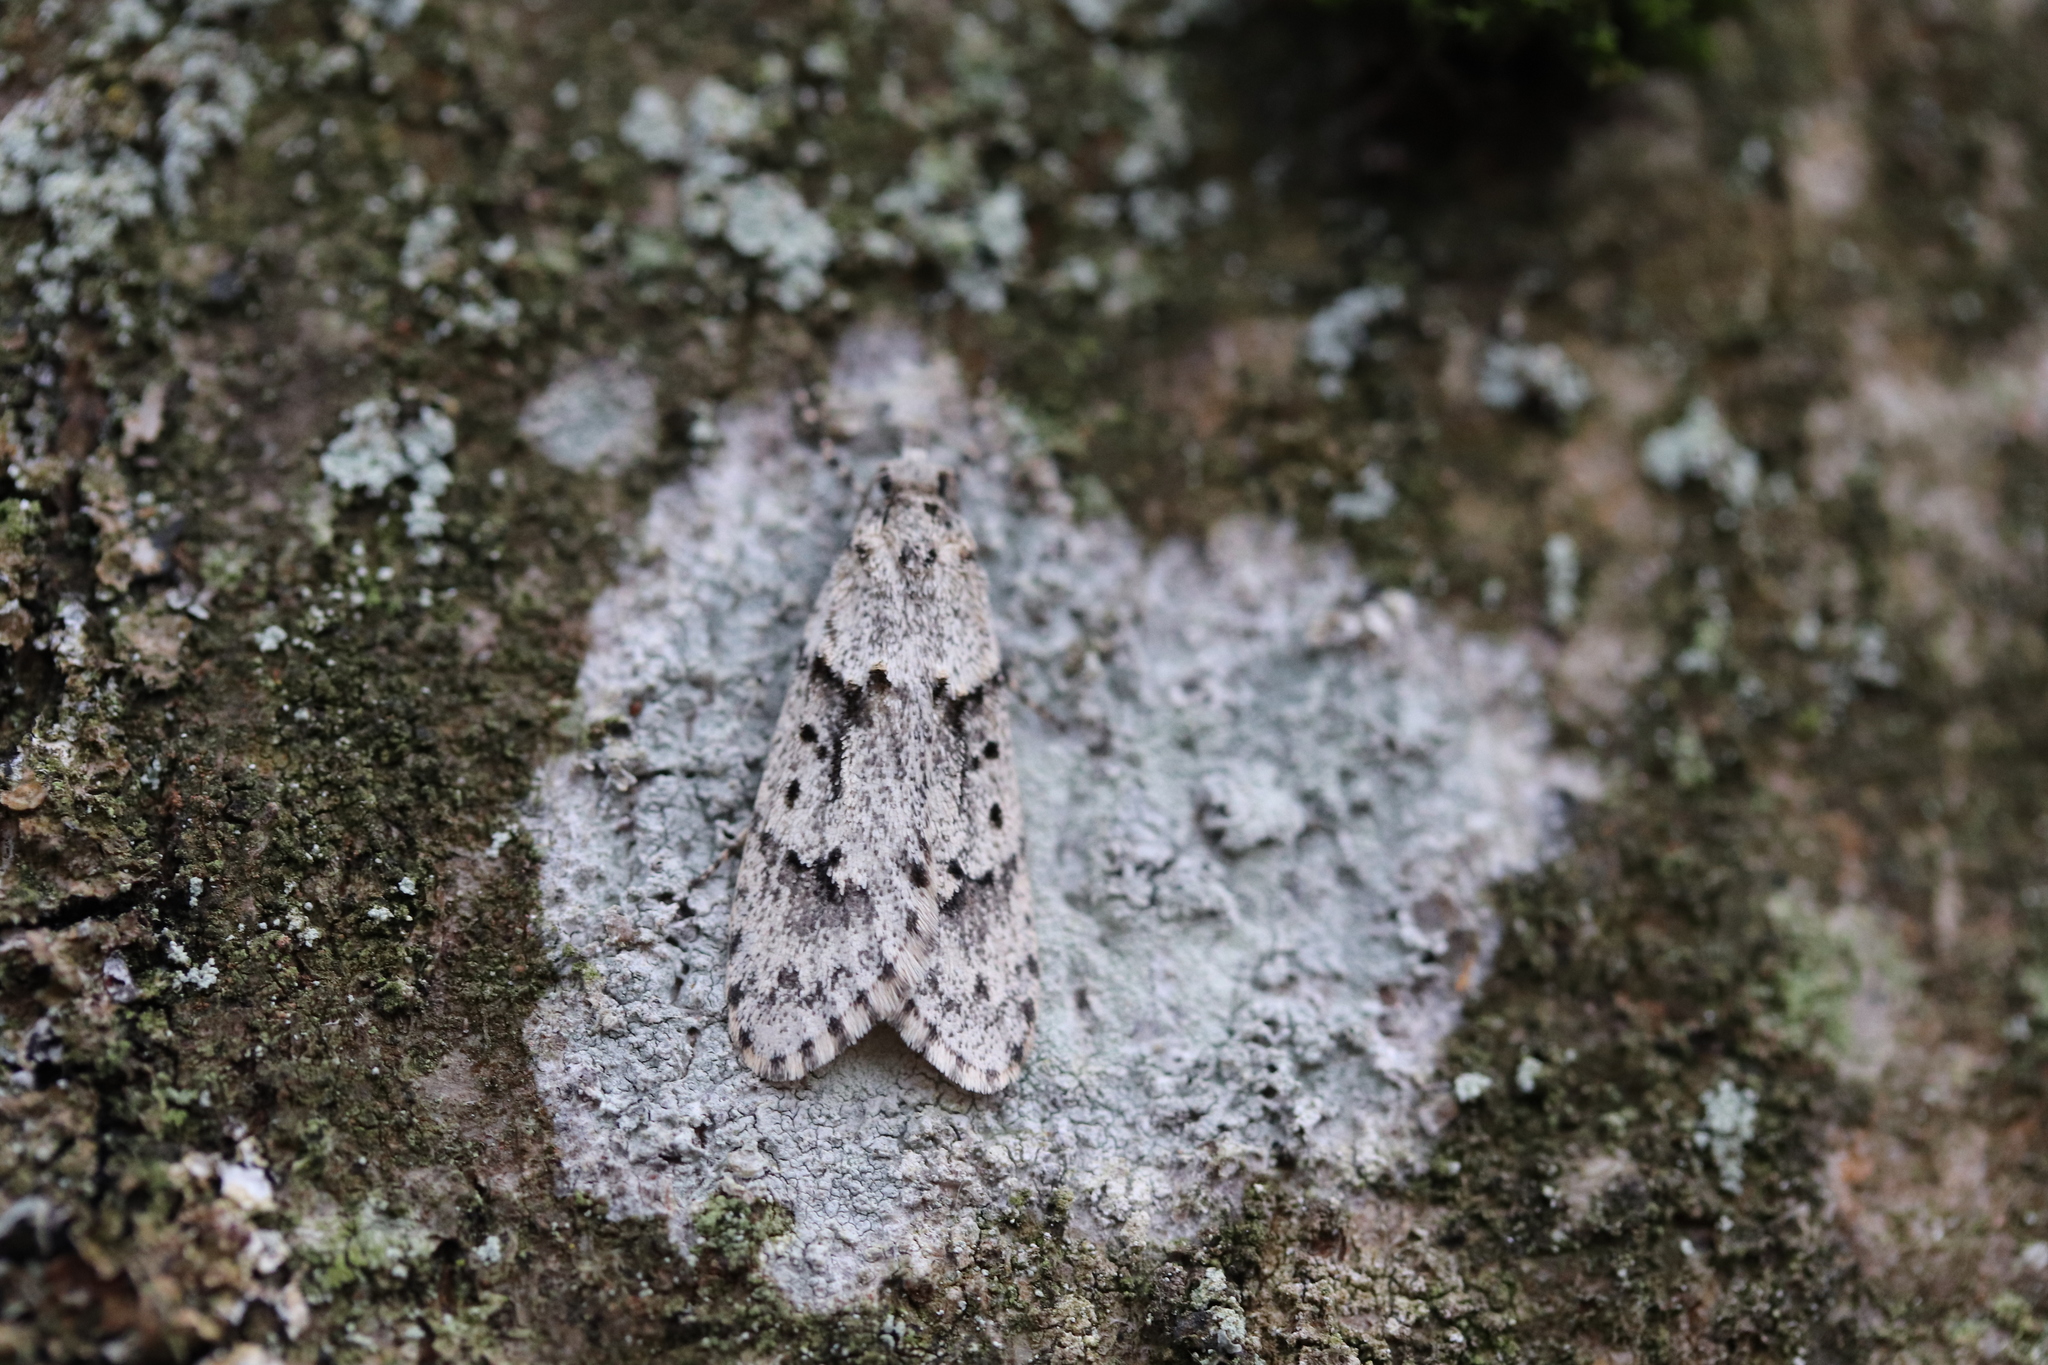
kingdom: Animalia
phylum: Arthropoda
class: Insecta
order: Lepidoptera
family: Lypusidae
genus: Diurnea
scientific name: Diurnea fagella
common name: March tubic
